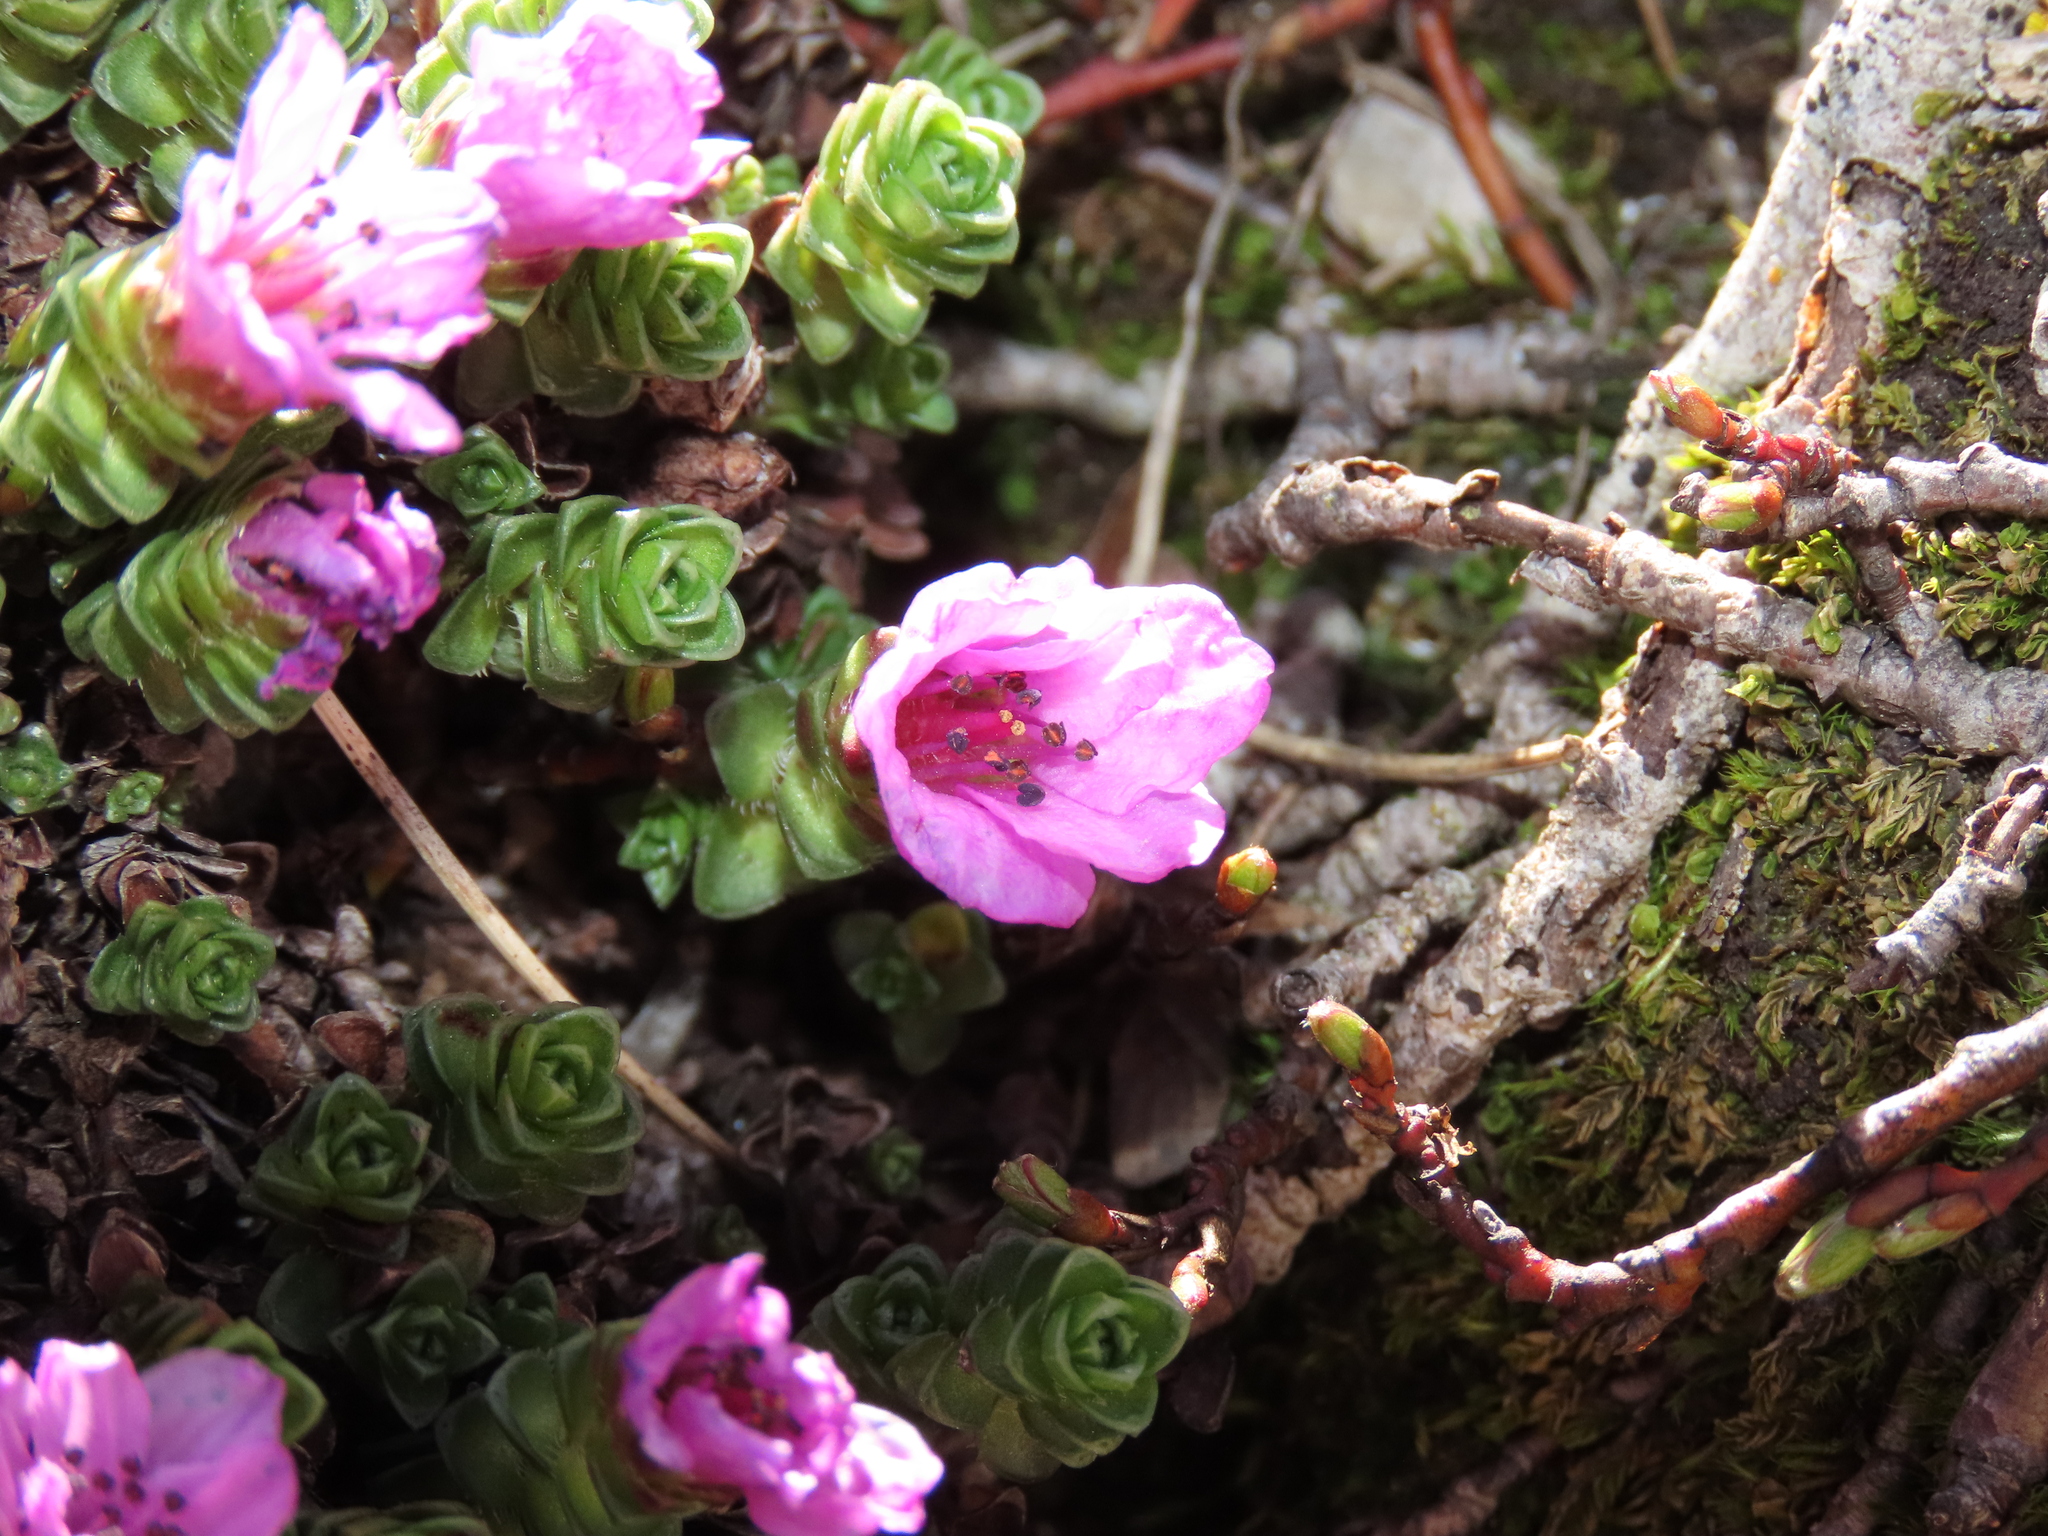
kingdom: Plantae
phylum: Tracheophyta
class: Magnoliopsida
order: Saxifragales
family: Saxifragaceae
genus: Saxifraga
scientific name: Saxifraga oppositifolia
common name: Purple saxifrage
